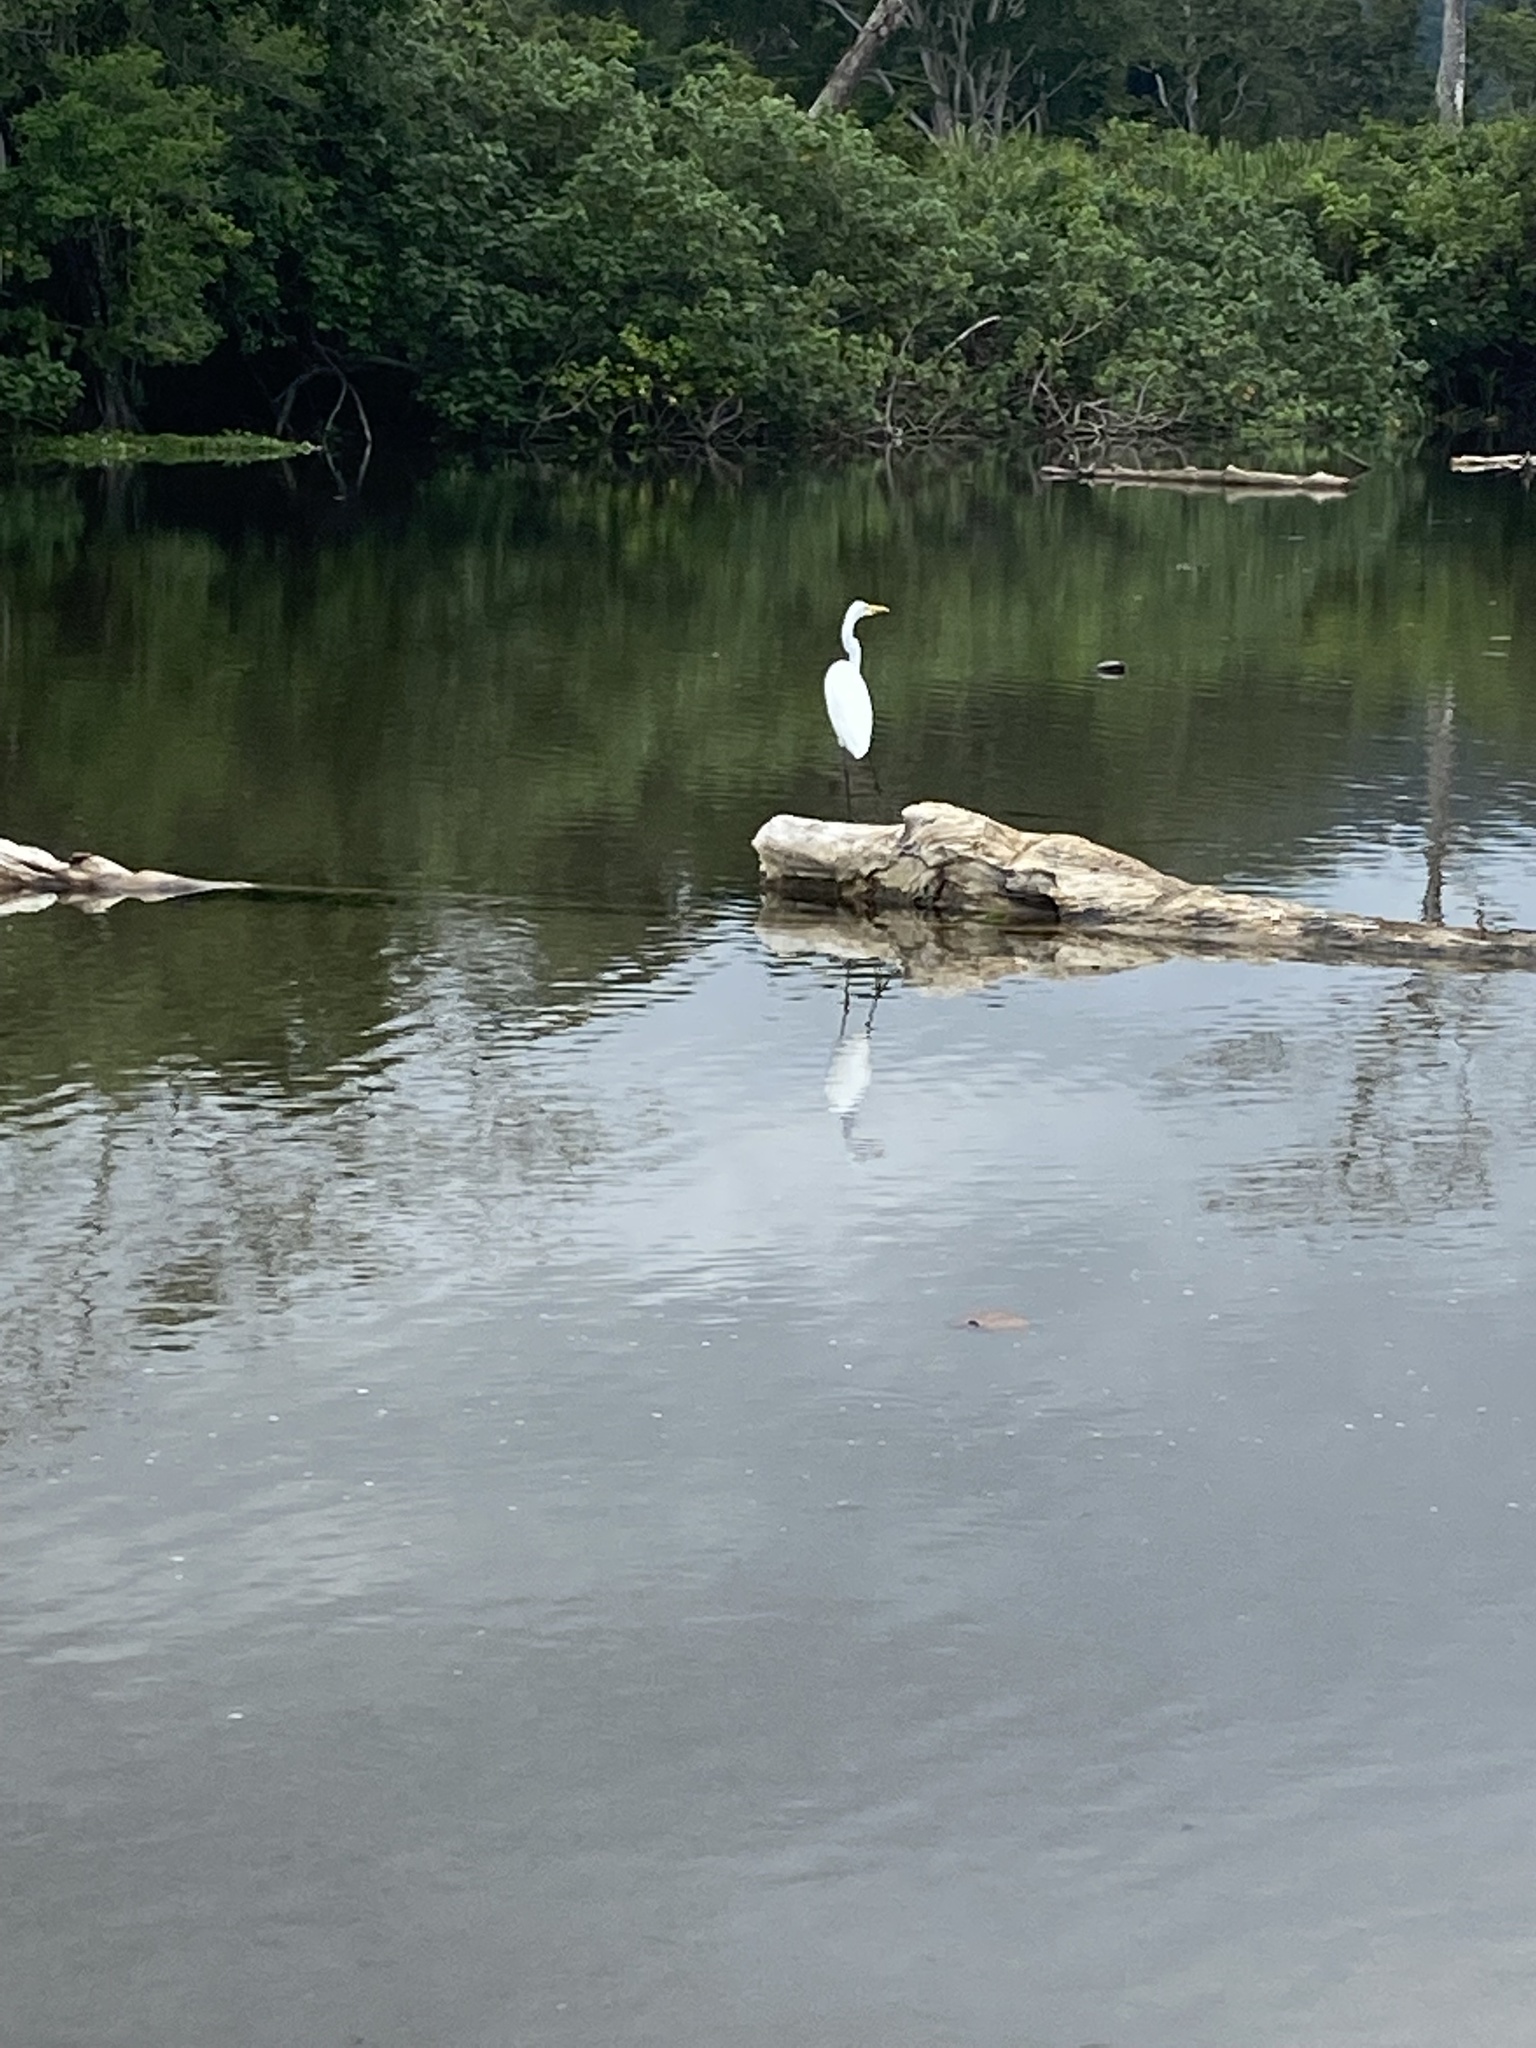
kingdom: Animalia
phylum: Chordata
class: Aves
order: Pelecaniformes
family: Ardeidae
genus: Ardea
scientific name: Ardea alba
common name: Great egret
